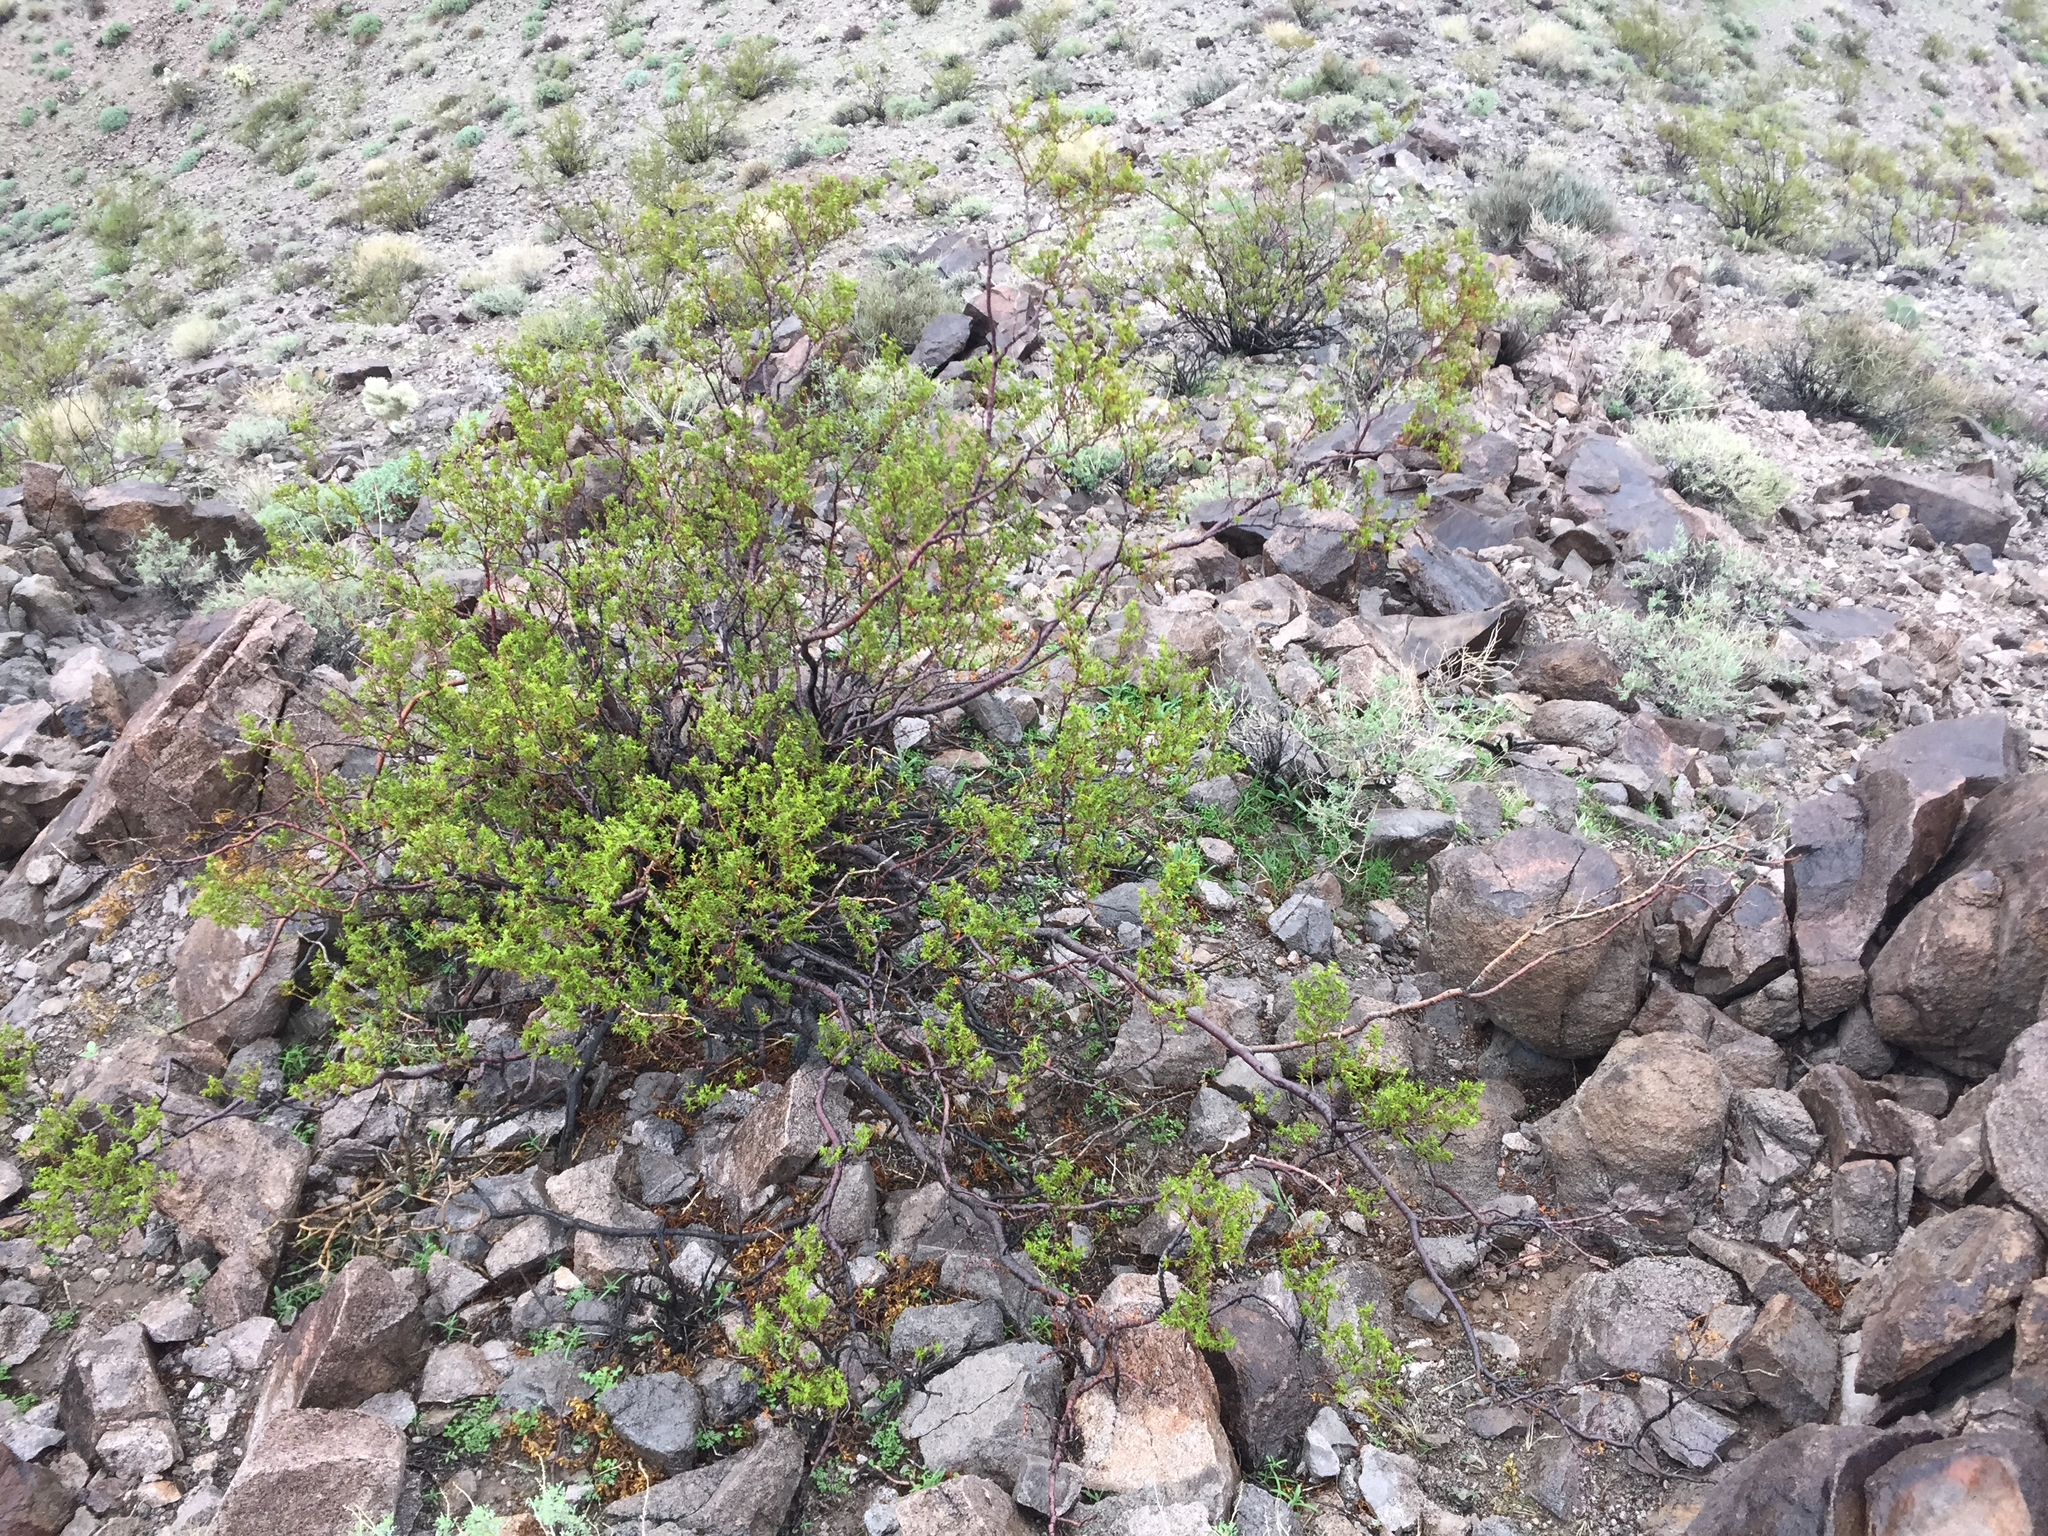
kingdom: Plantae
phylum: Tracheophyta
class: Magnoliopsida
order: Zygophyllales
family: Zygophyllaceae
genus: Larrea
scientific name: Larrea tridentata
